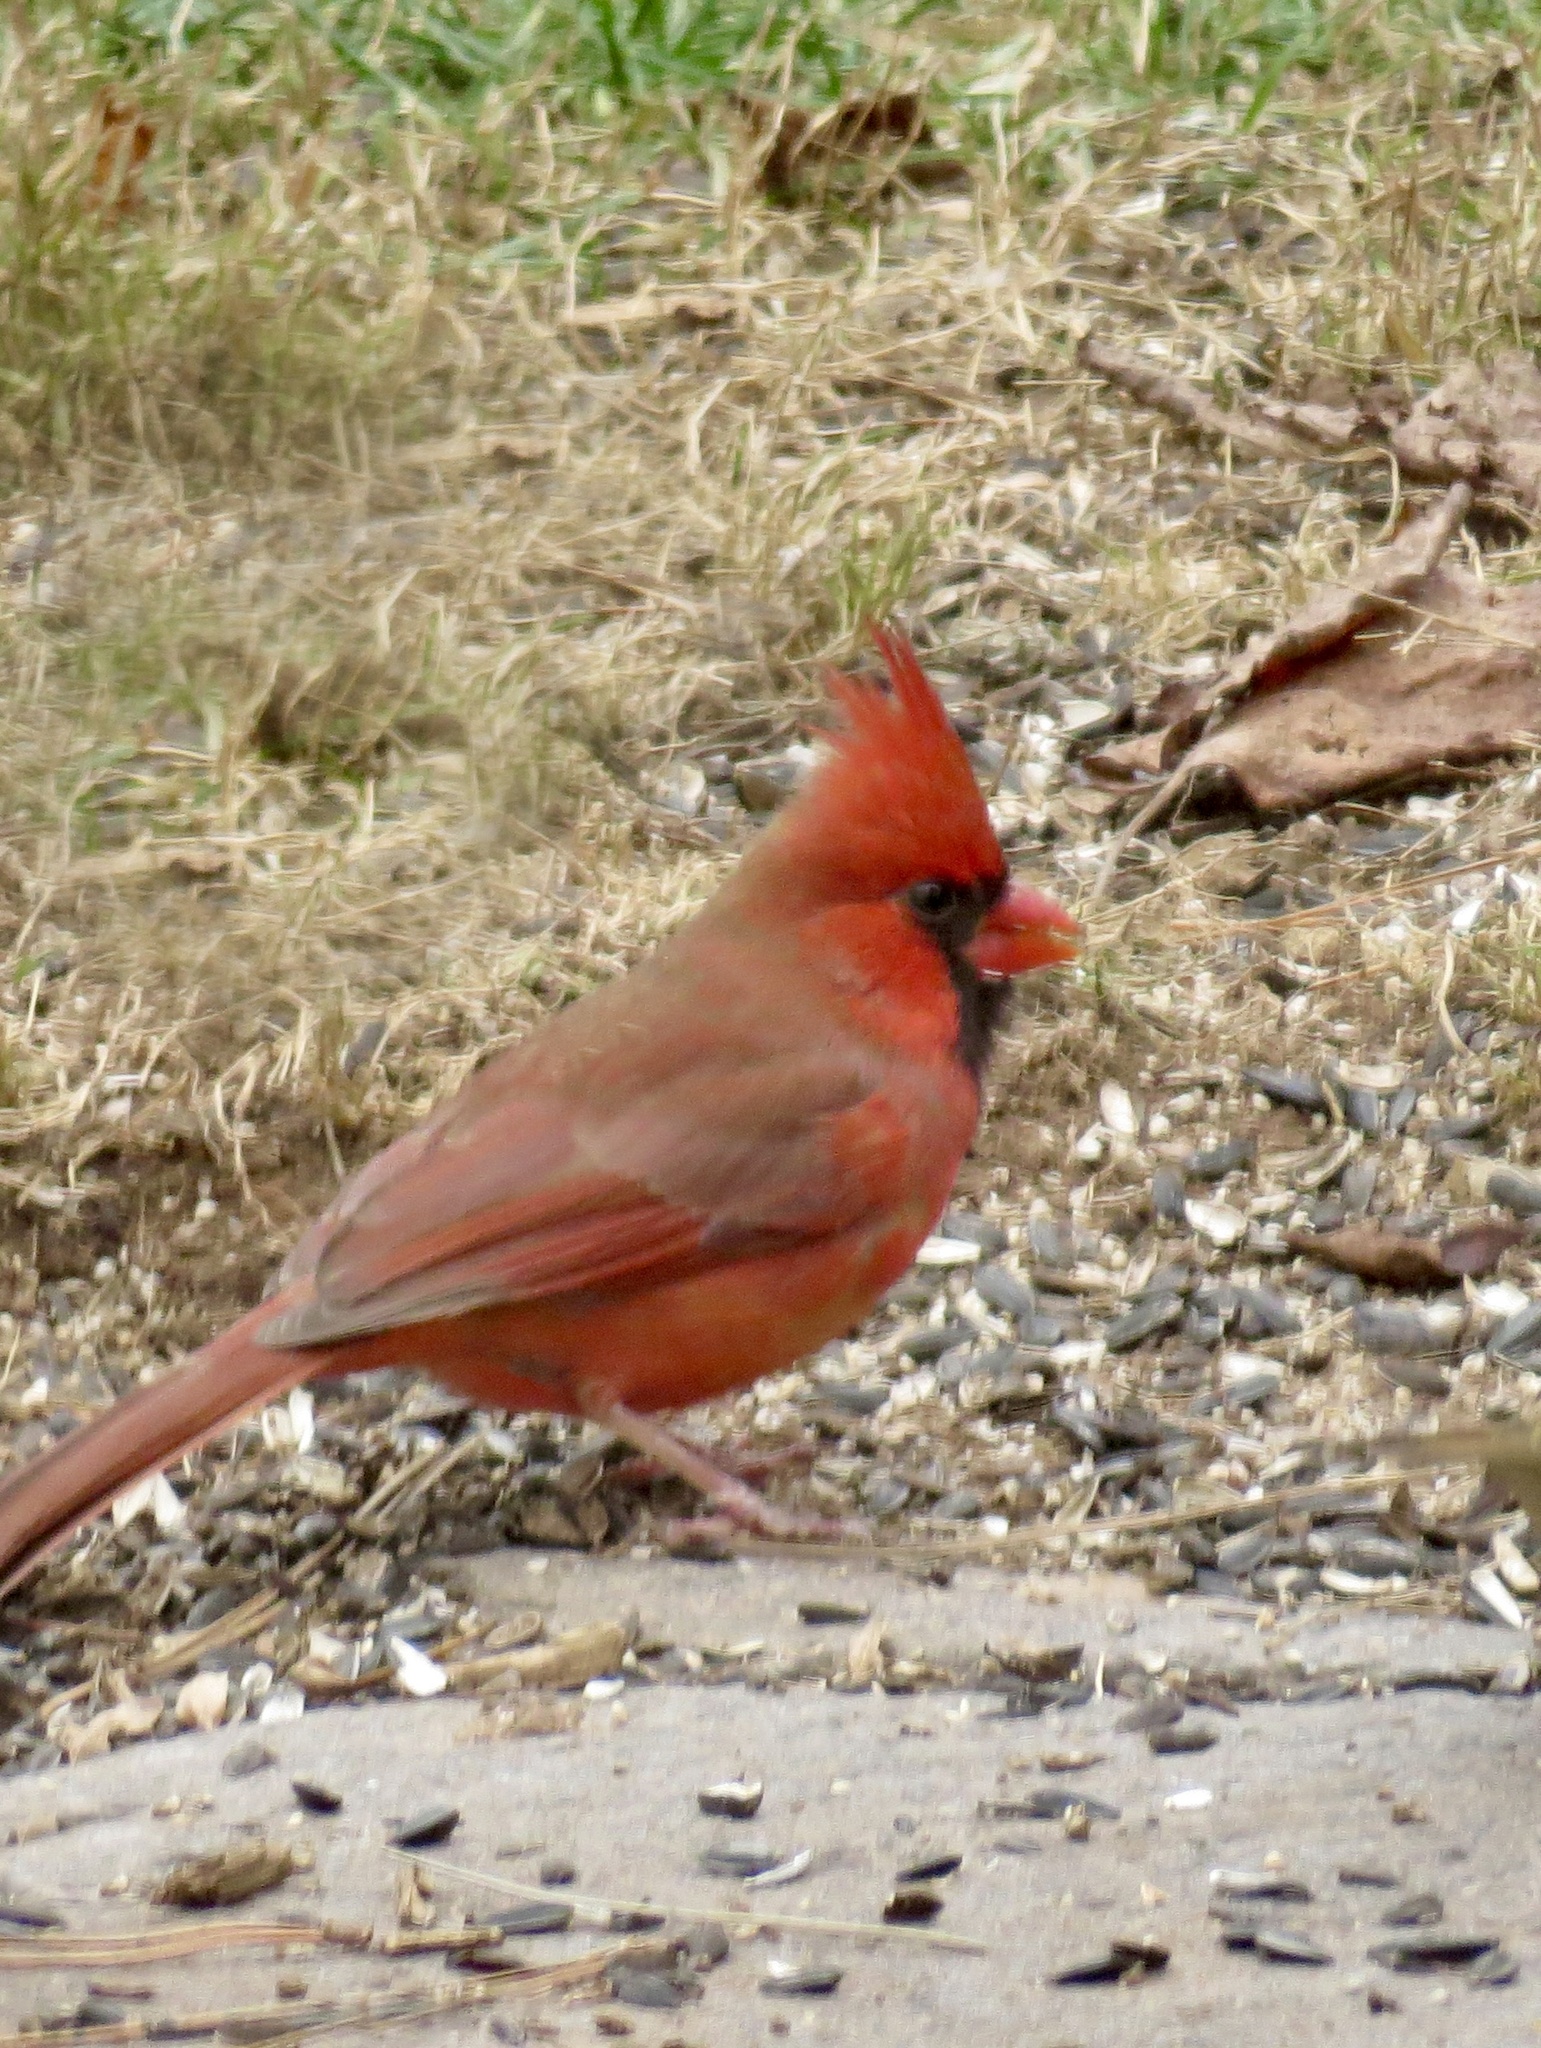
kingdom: Animalia
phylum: Chordata
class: Aves
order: Passeriformes
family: Cardinalidae
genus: Cardinalis
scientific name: Cardinalis cardinalis
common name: Northern cardinal
